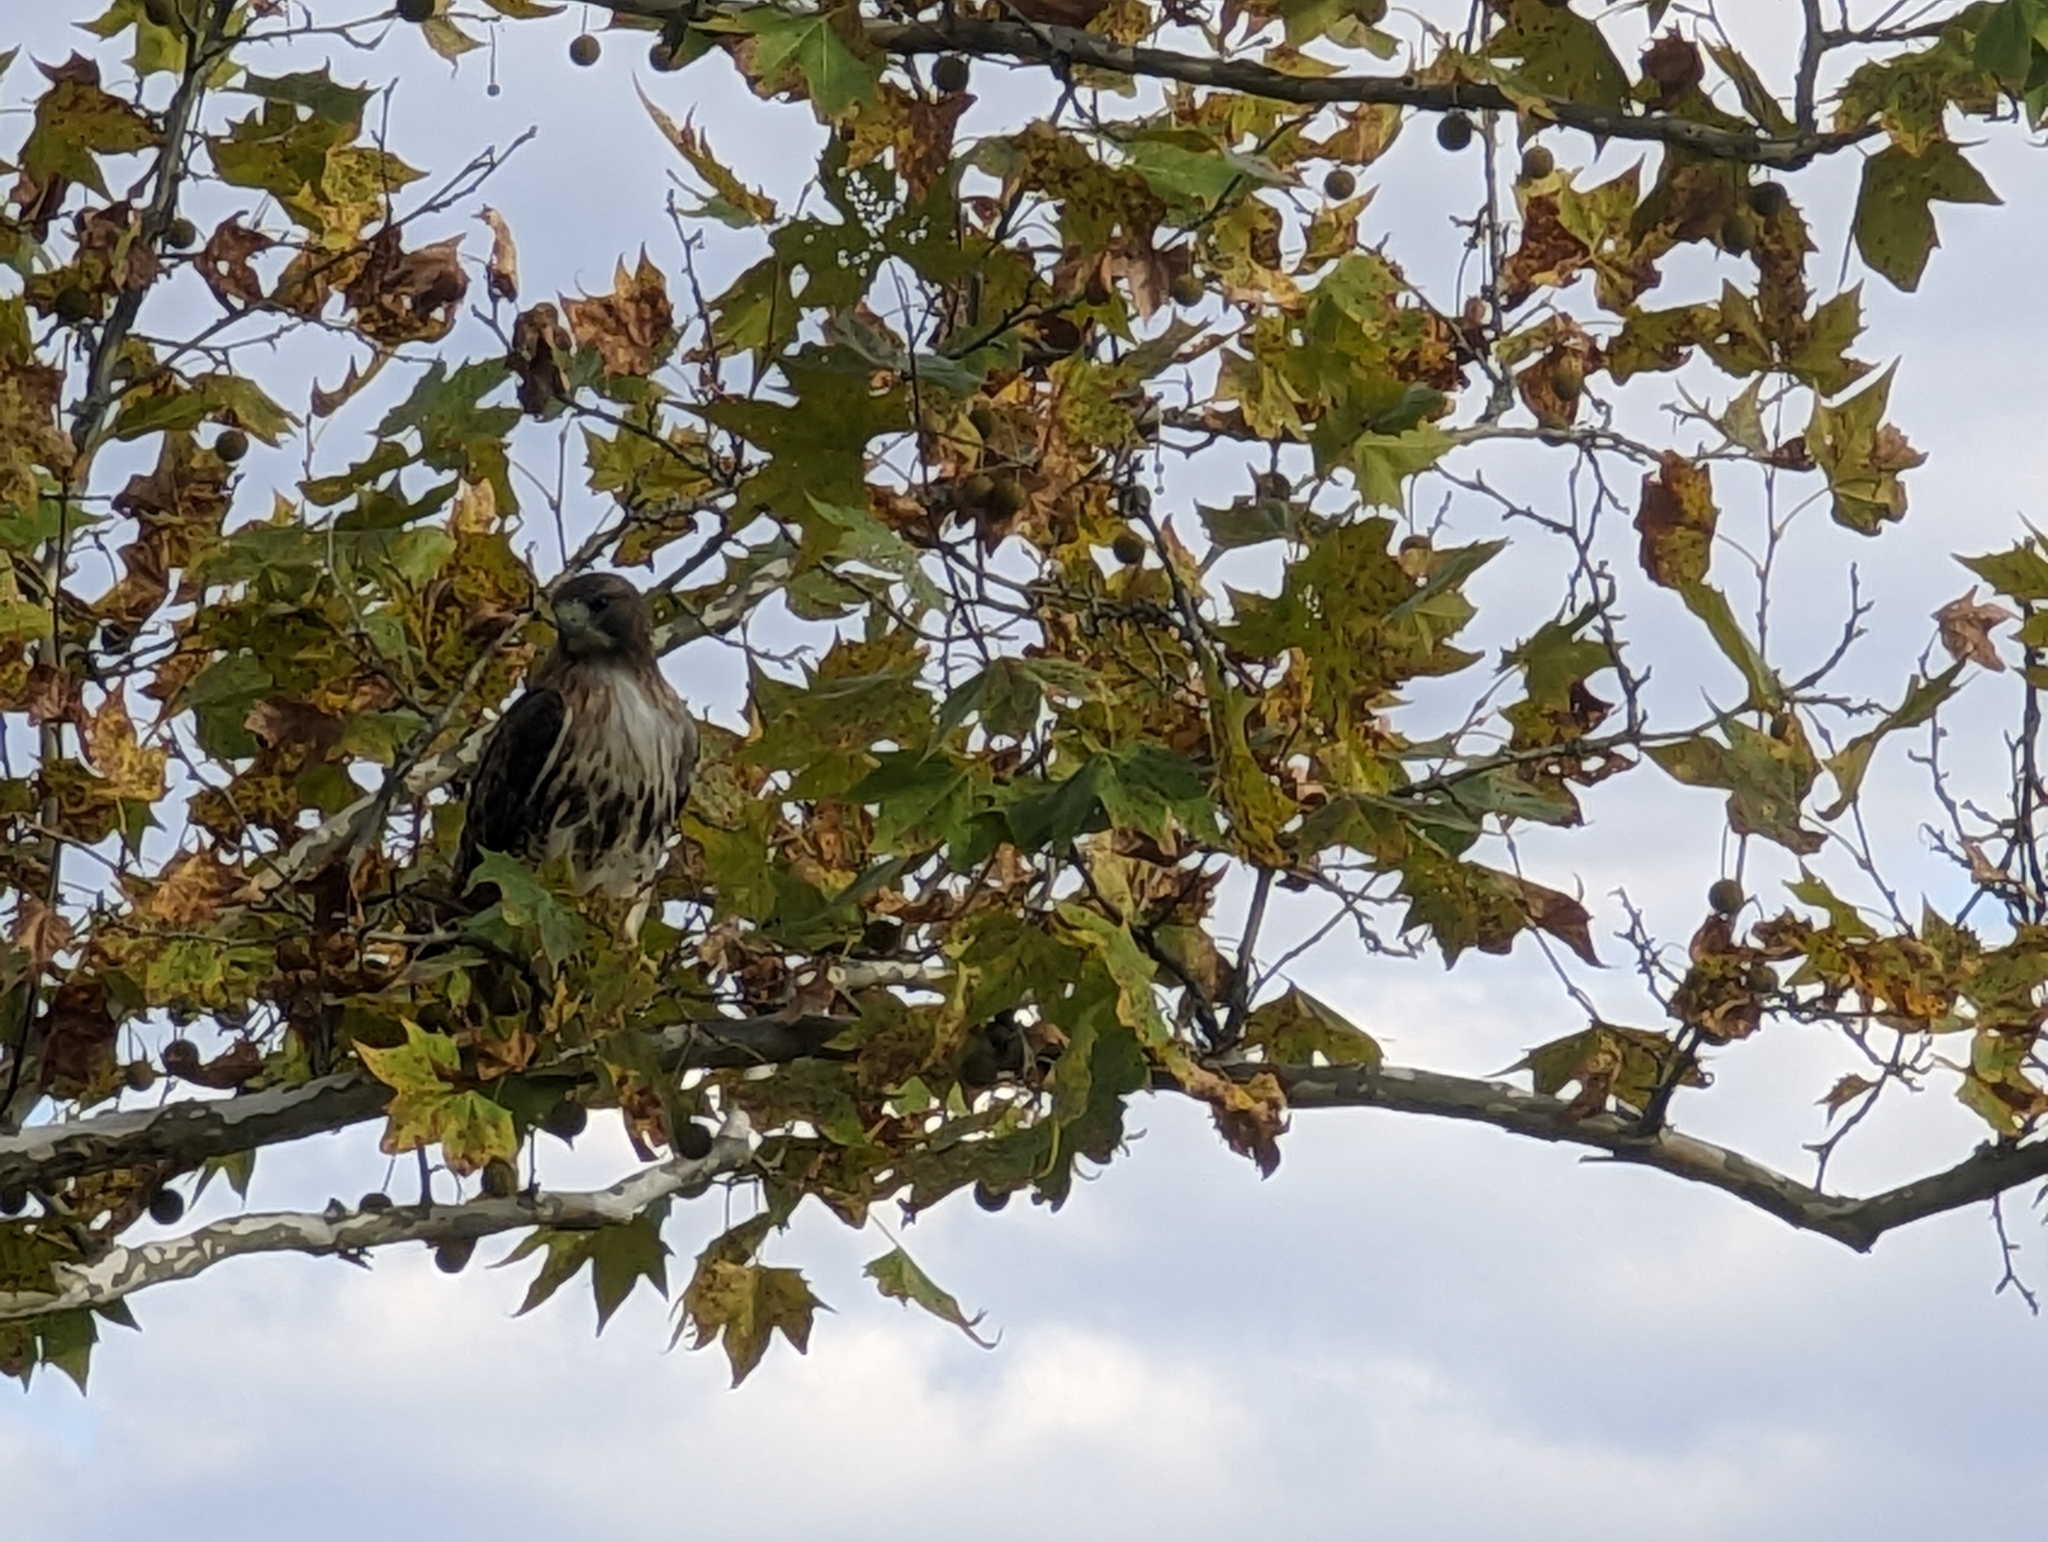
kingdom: Animalia
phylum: Chordata
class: Aves
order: Accipitriformes
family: Accipitridae
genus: Buteo
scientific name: Buteo jamaicensis
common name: Red-tailed hawk
